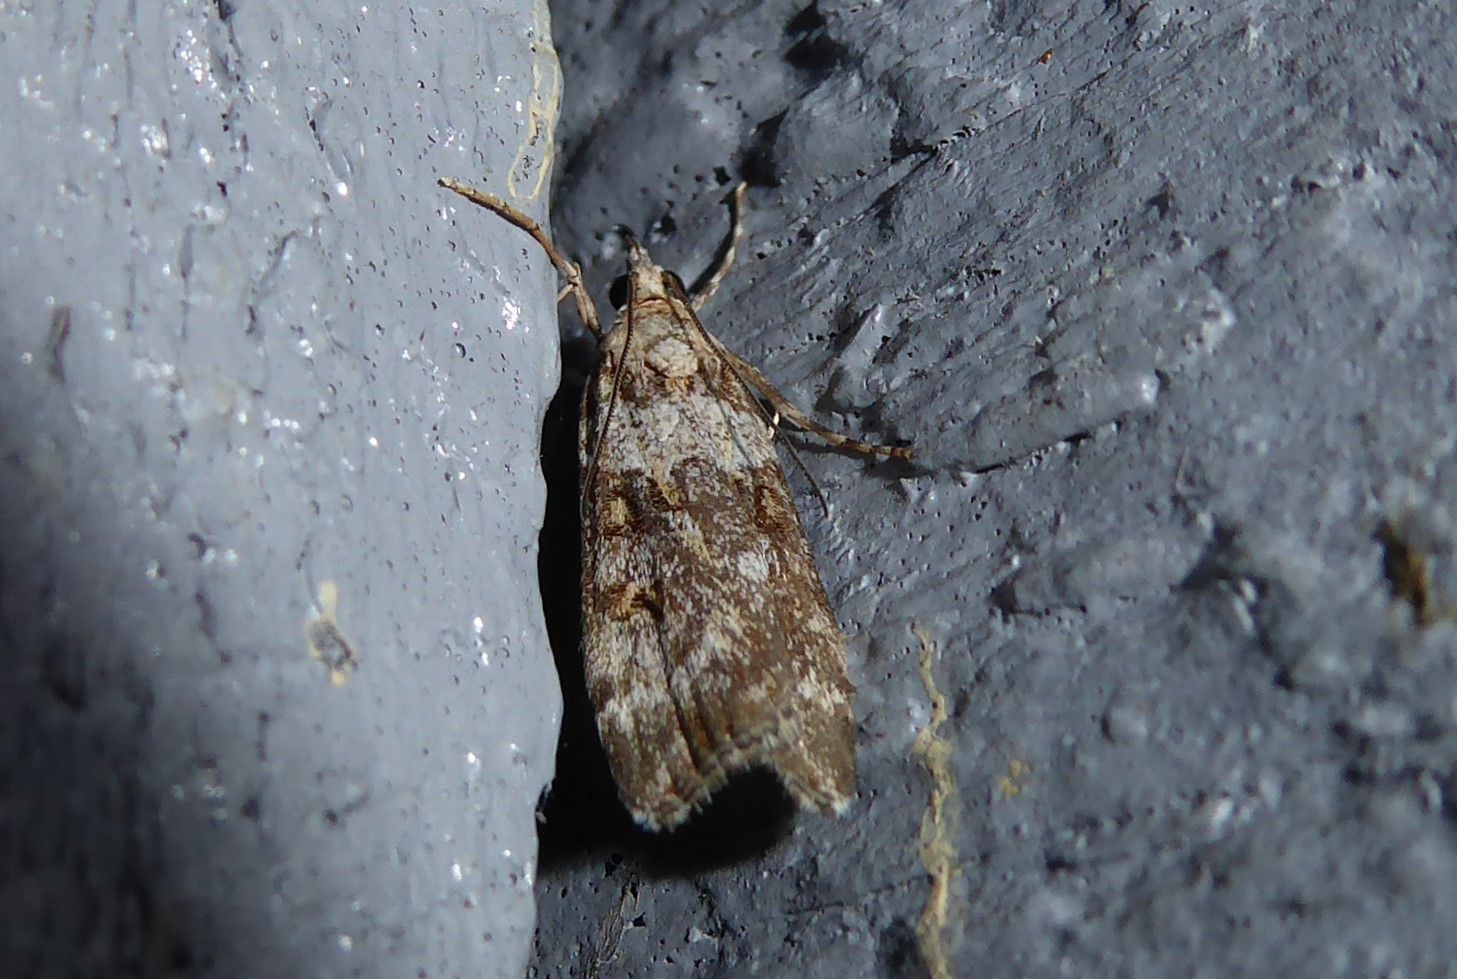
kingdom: Animalia
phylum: Arthropoda
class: Insecta
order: Lepidoptera
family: Crambidae
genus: Eudonia
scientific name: Eudonia diphtheralis
